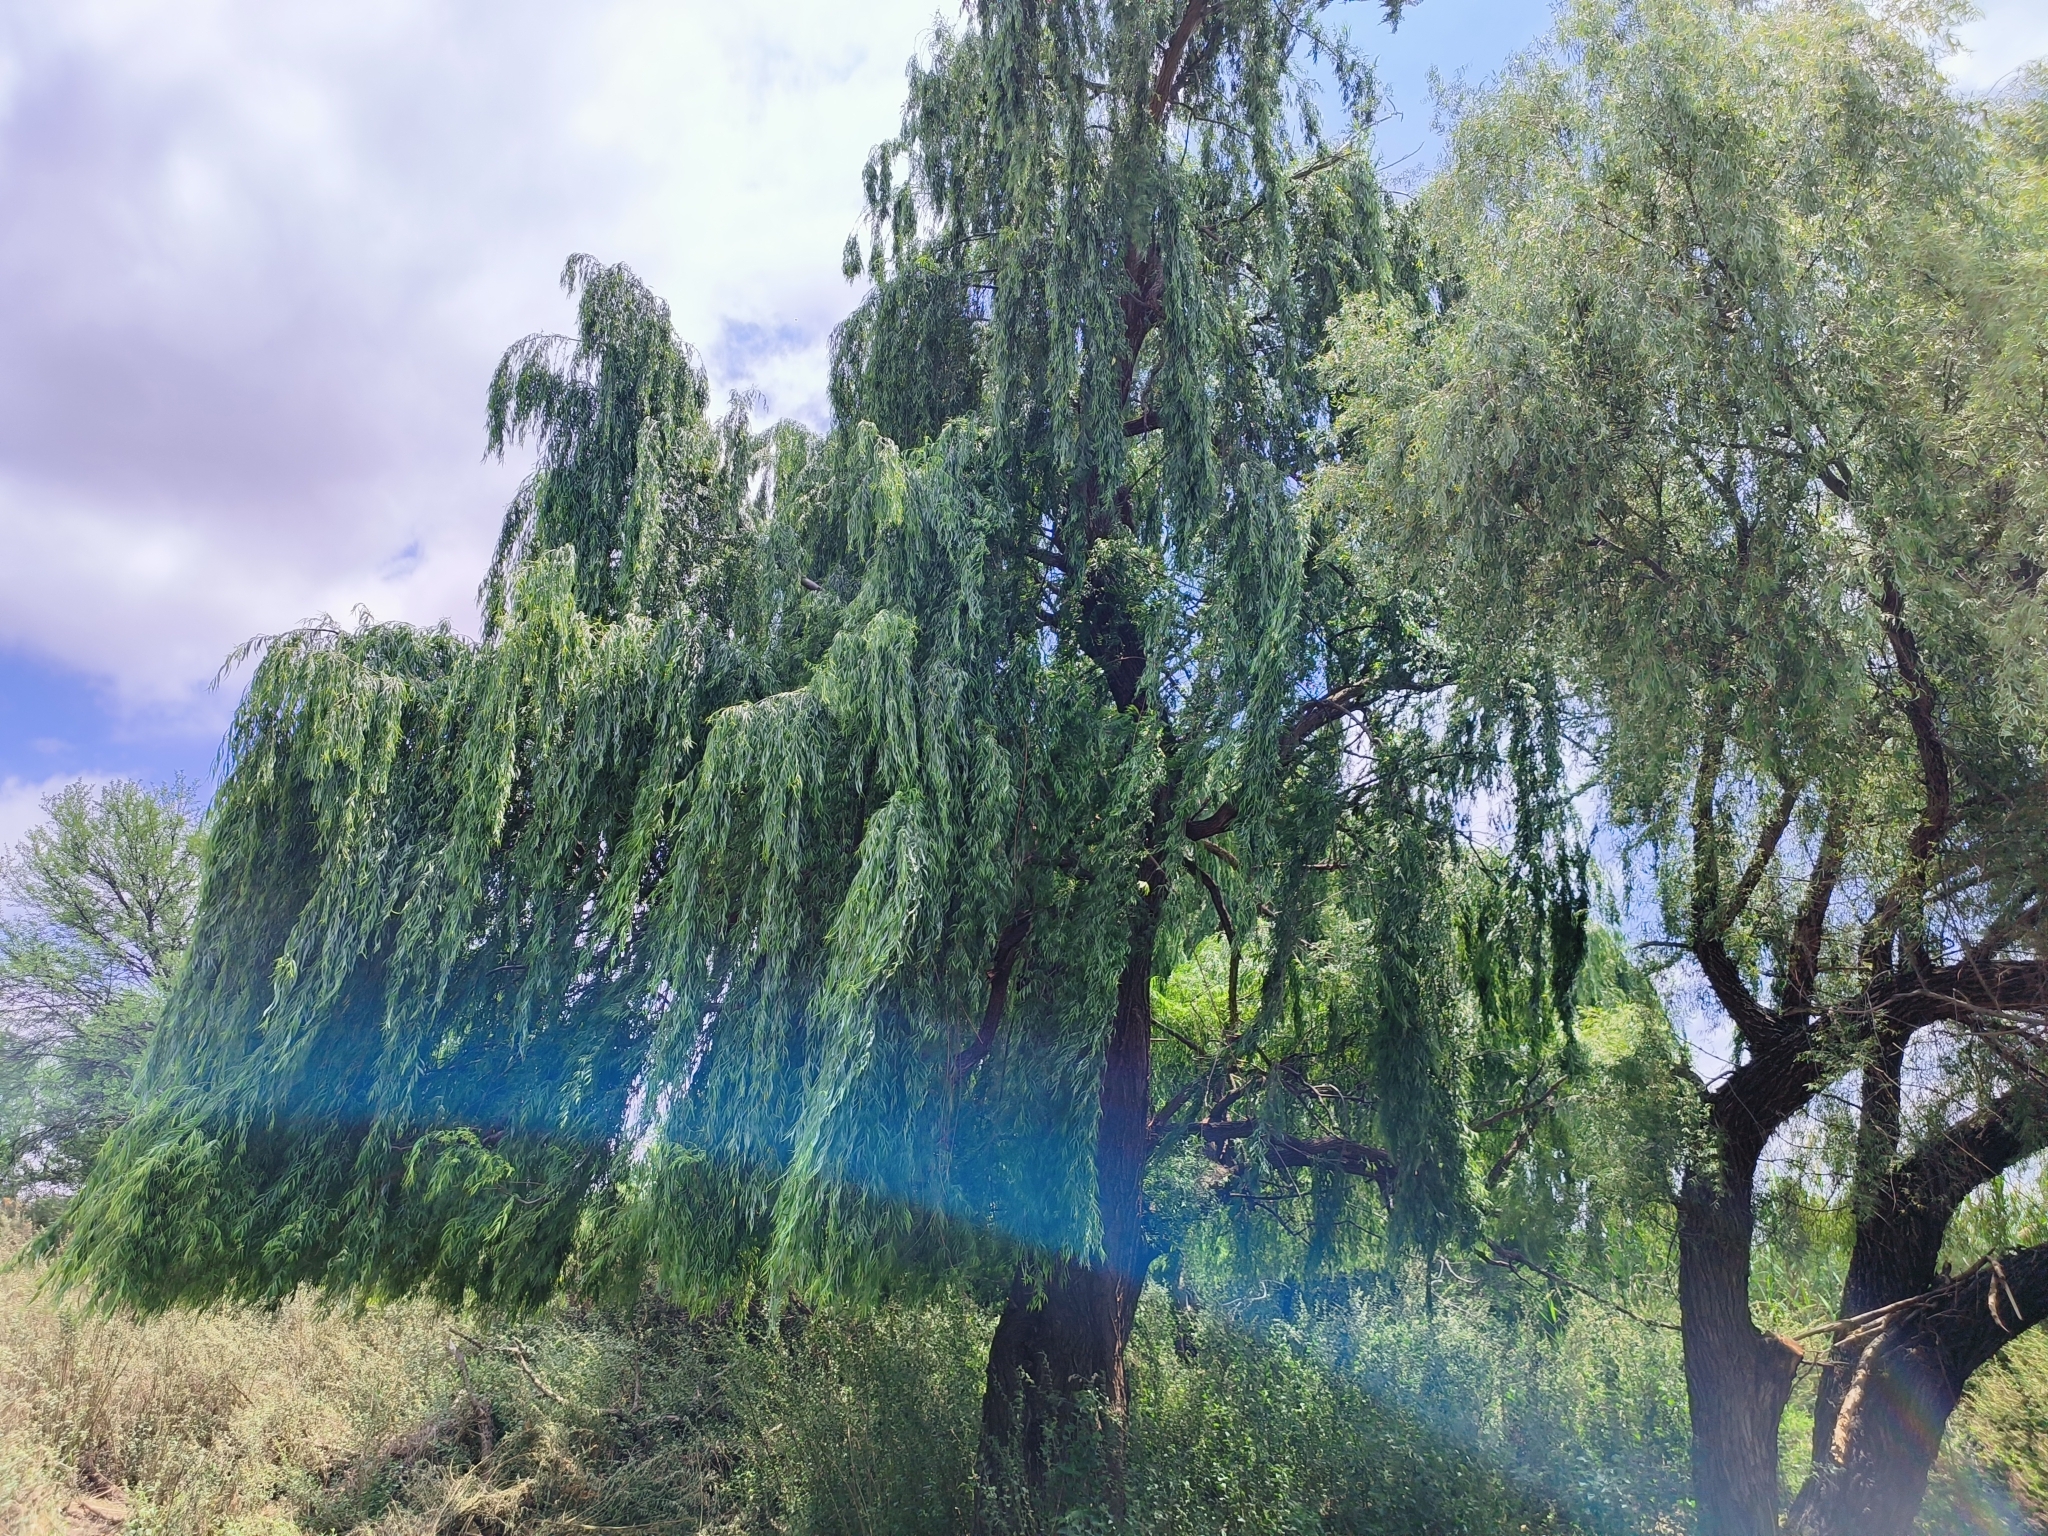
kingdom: Plantae
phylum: Tracheophyta
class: Magnoliopsida
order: Malpighiales
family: Salicaceae
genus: Salix
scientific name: Salix babylonica
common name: Weeping willow
